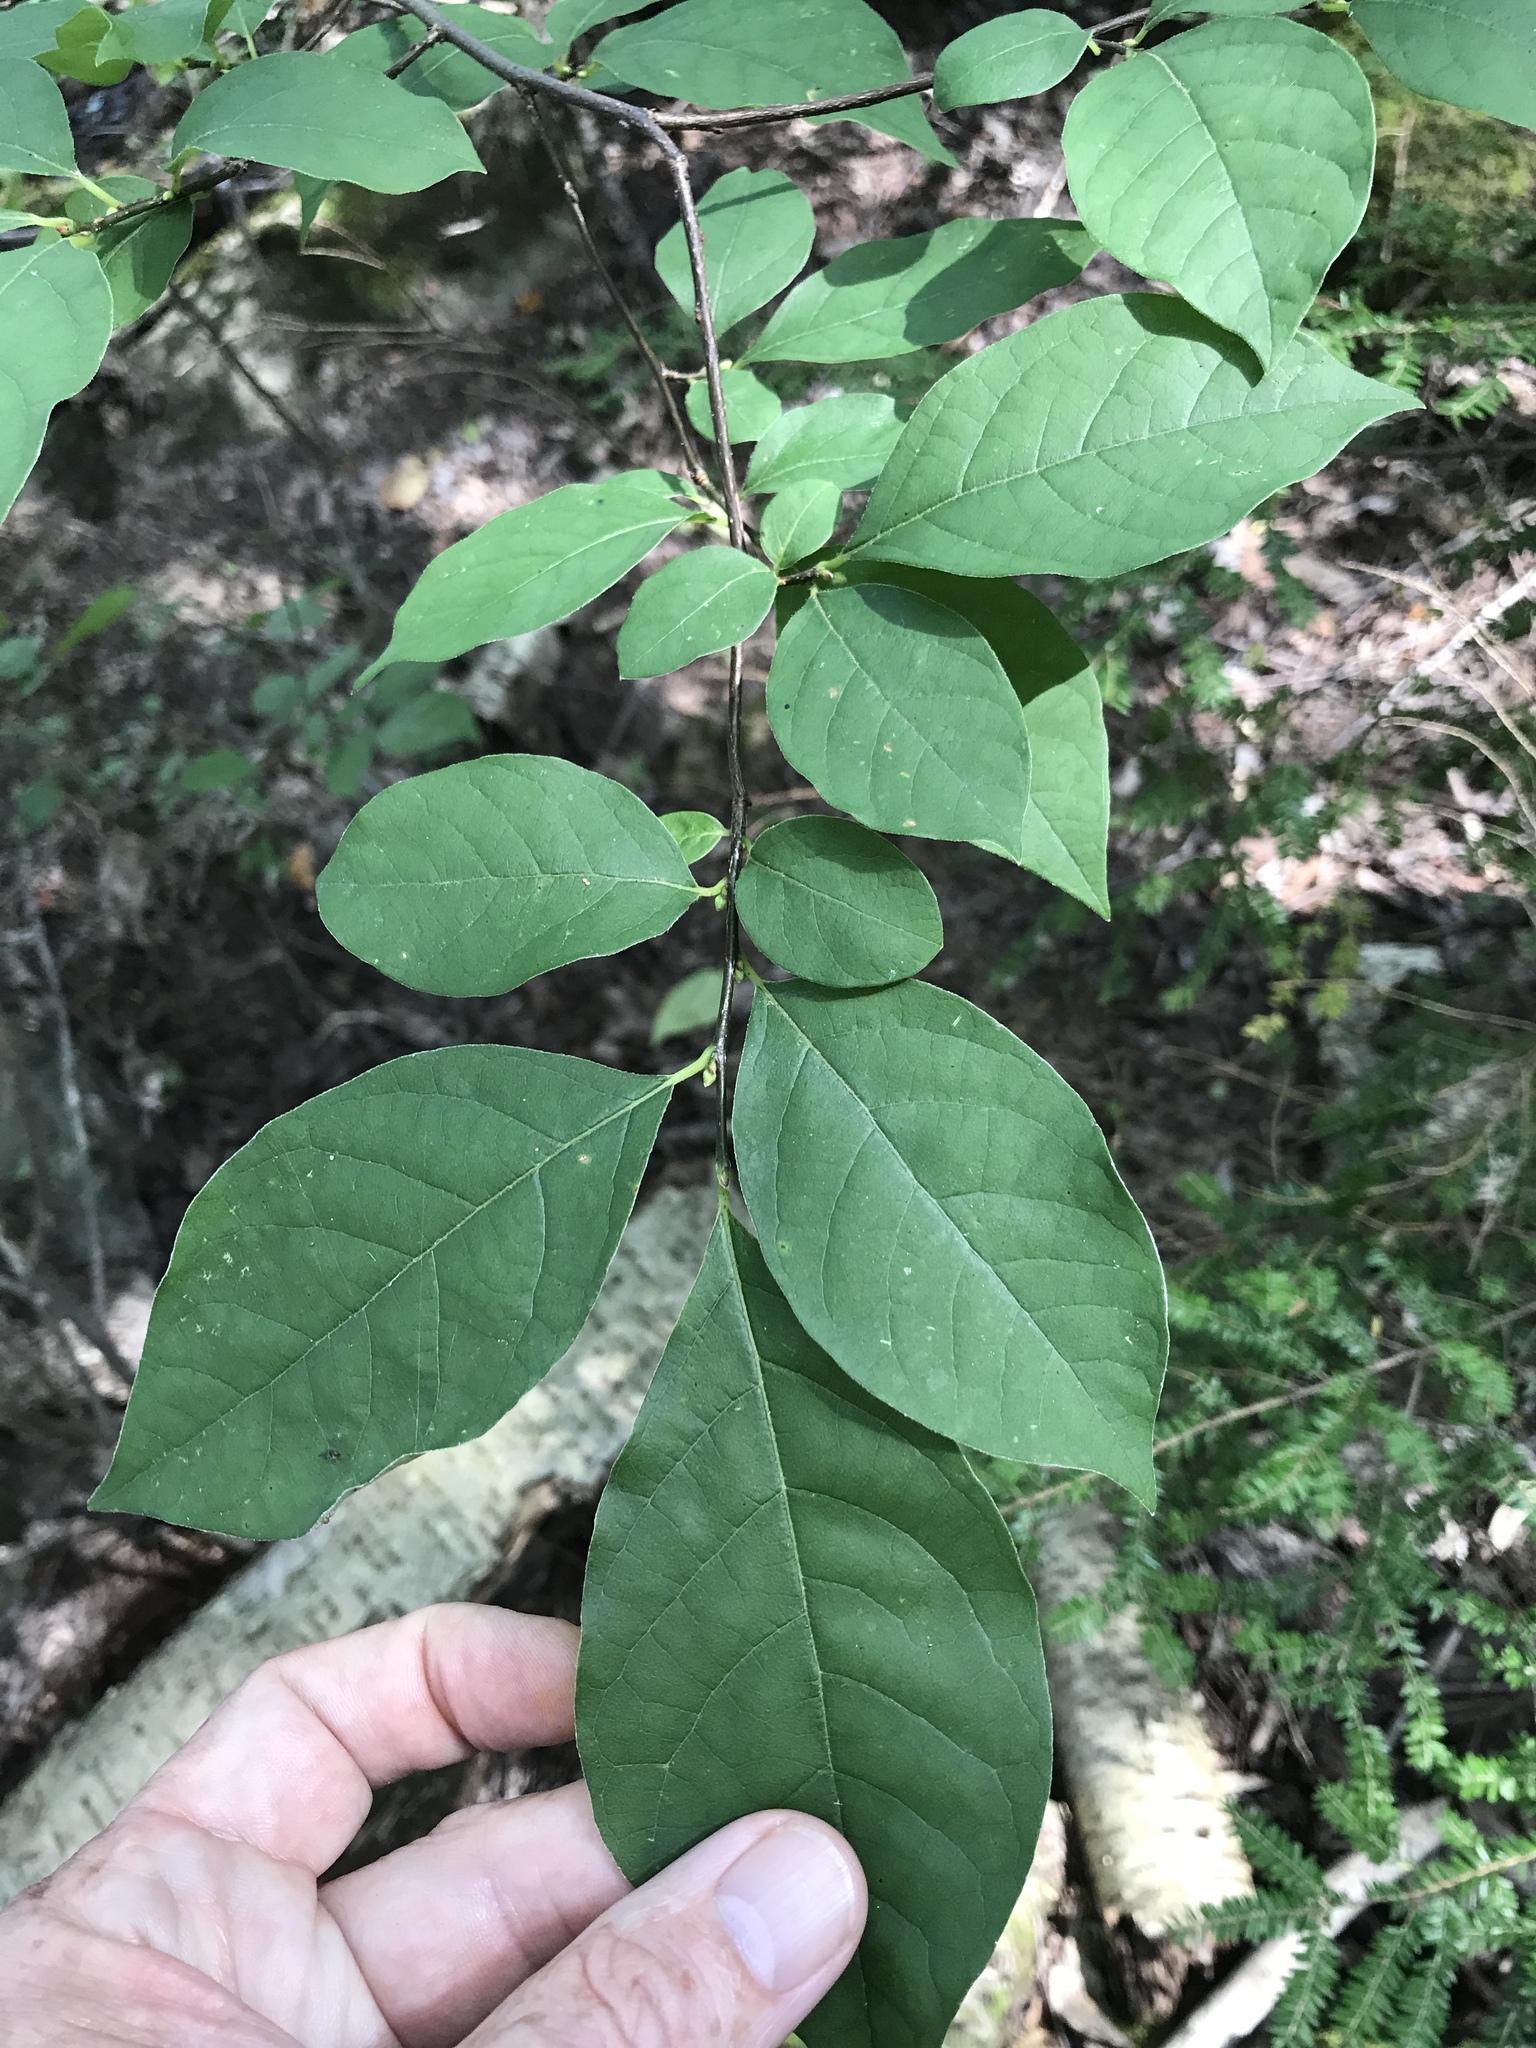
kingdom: Plantae
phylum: Tracheophyta
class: Magnoliopsida
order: Laurales
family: Lauraceae
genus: Lindera
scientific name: Lindera benzoin
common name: Spicebush
